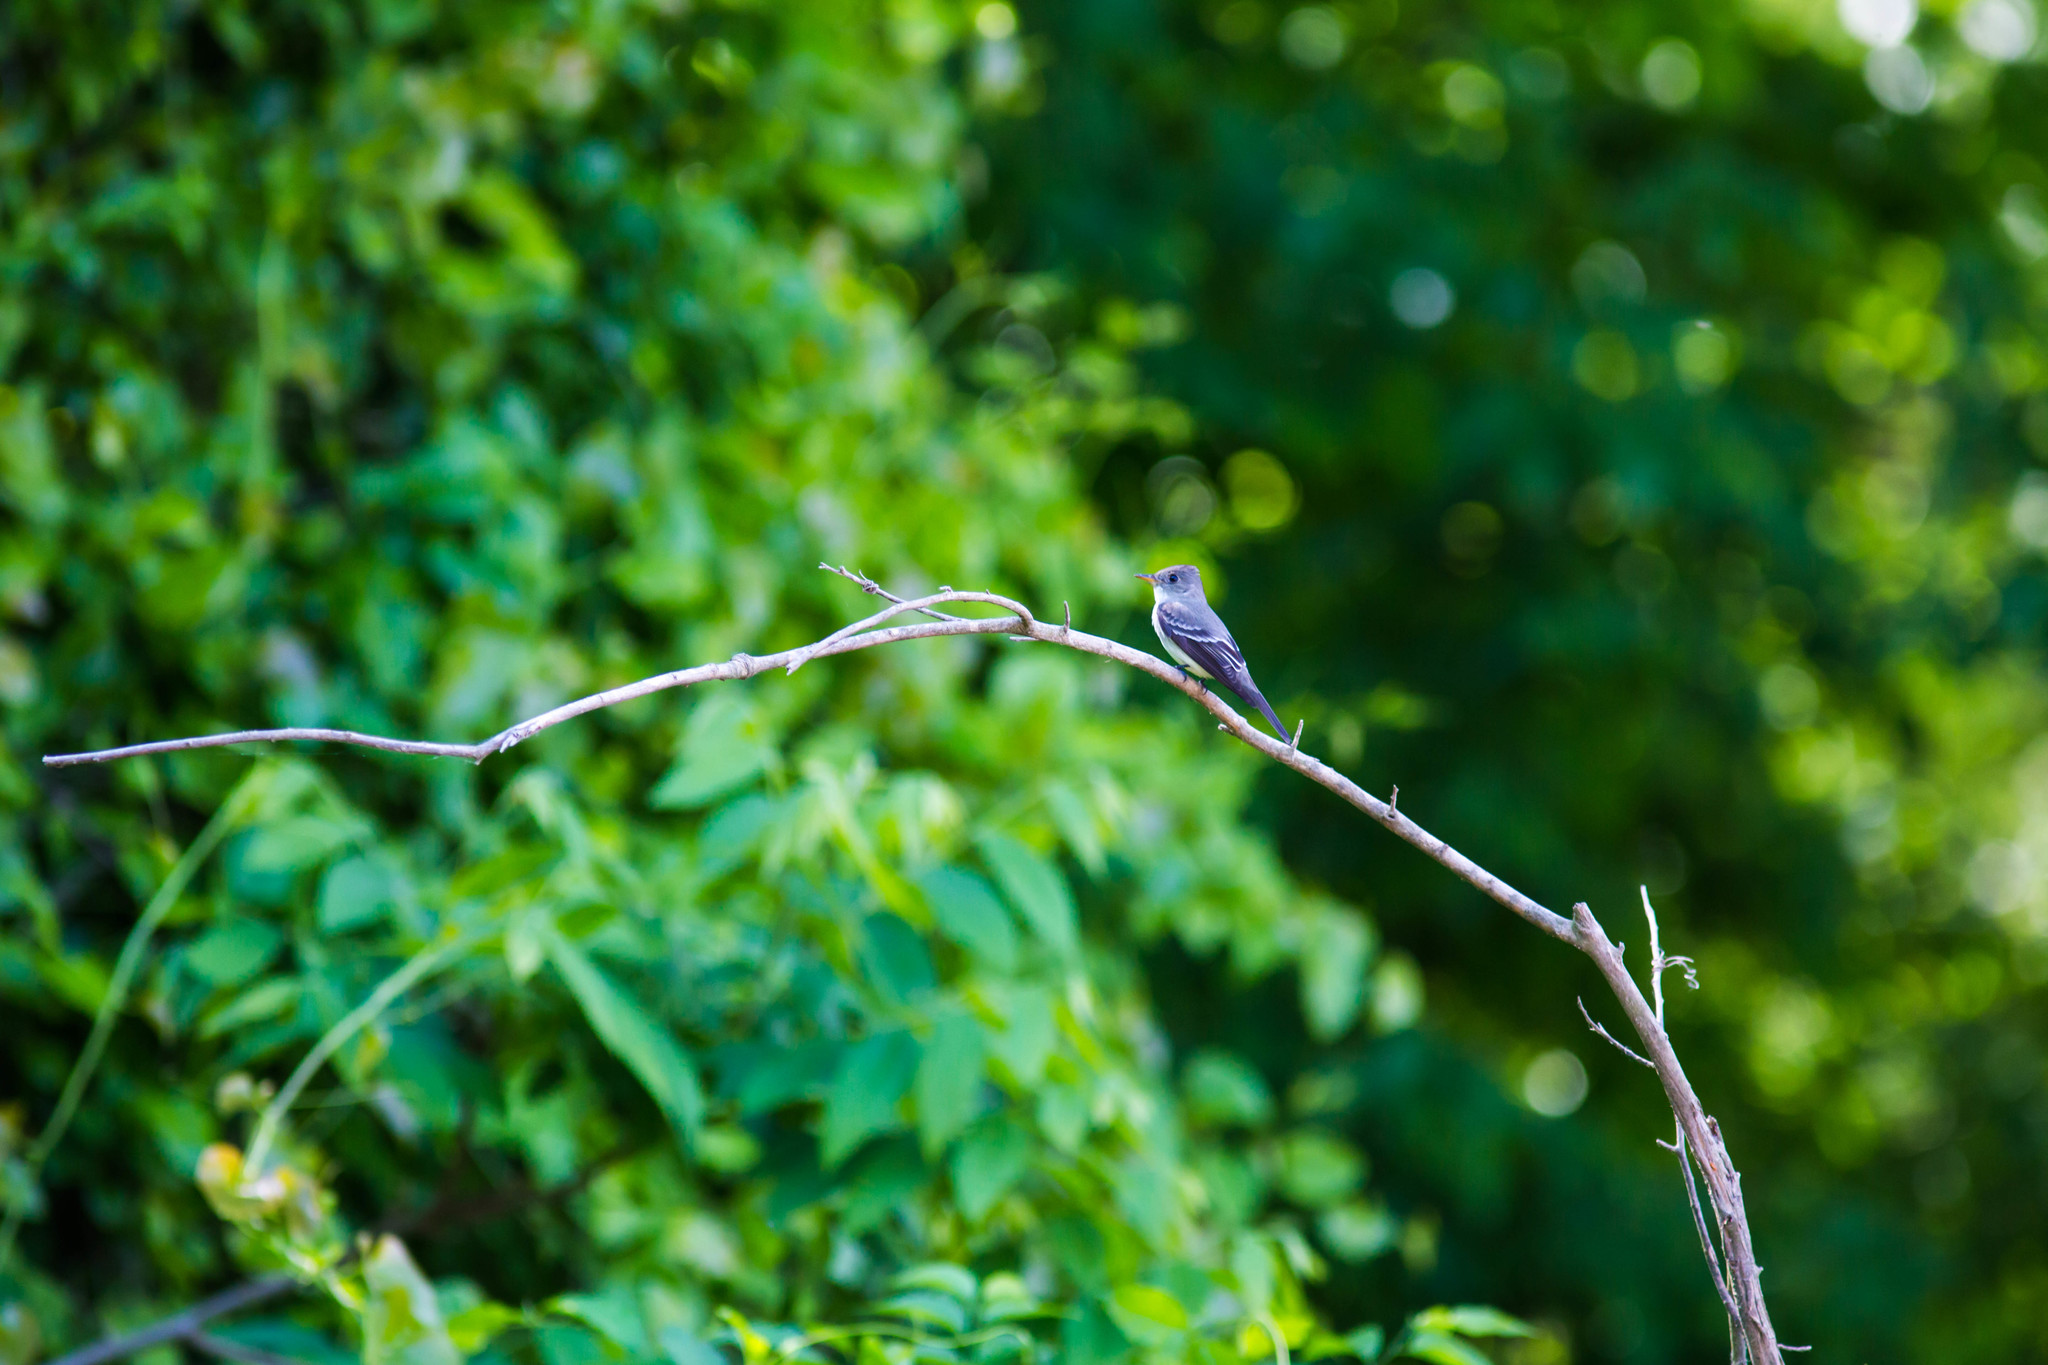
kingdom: Animalia
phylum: Chordata
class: Aves
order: Passeriformes
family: Tyrannidae
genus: Contopus
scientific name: Contopus virens
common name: Eastern wood-pewee
